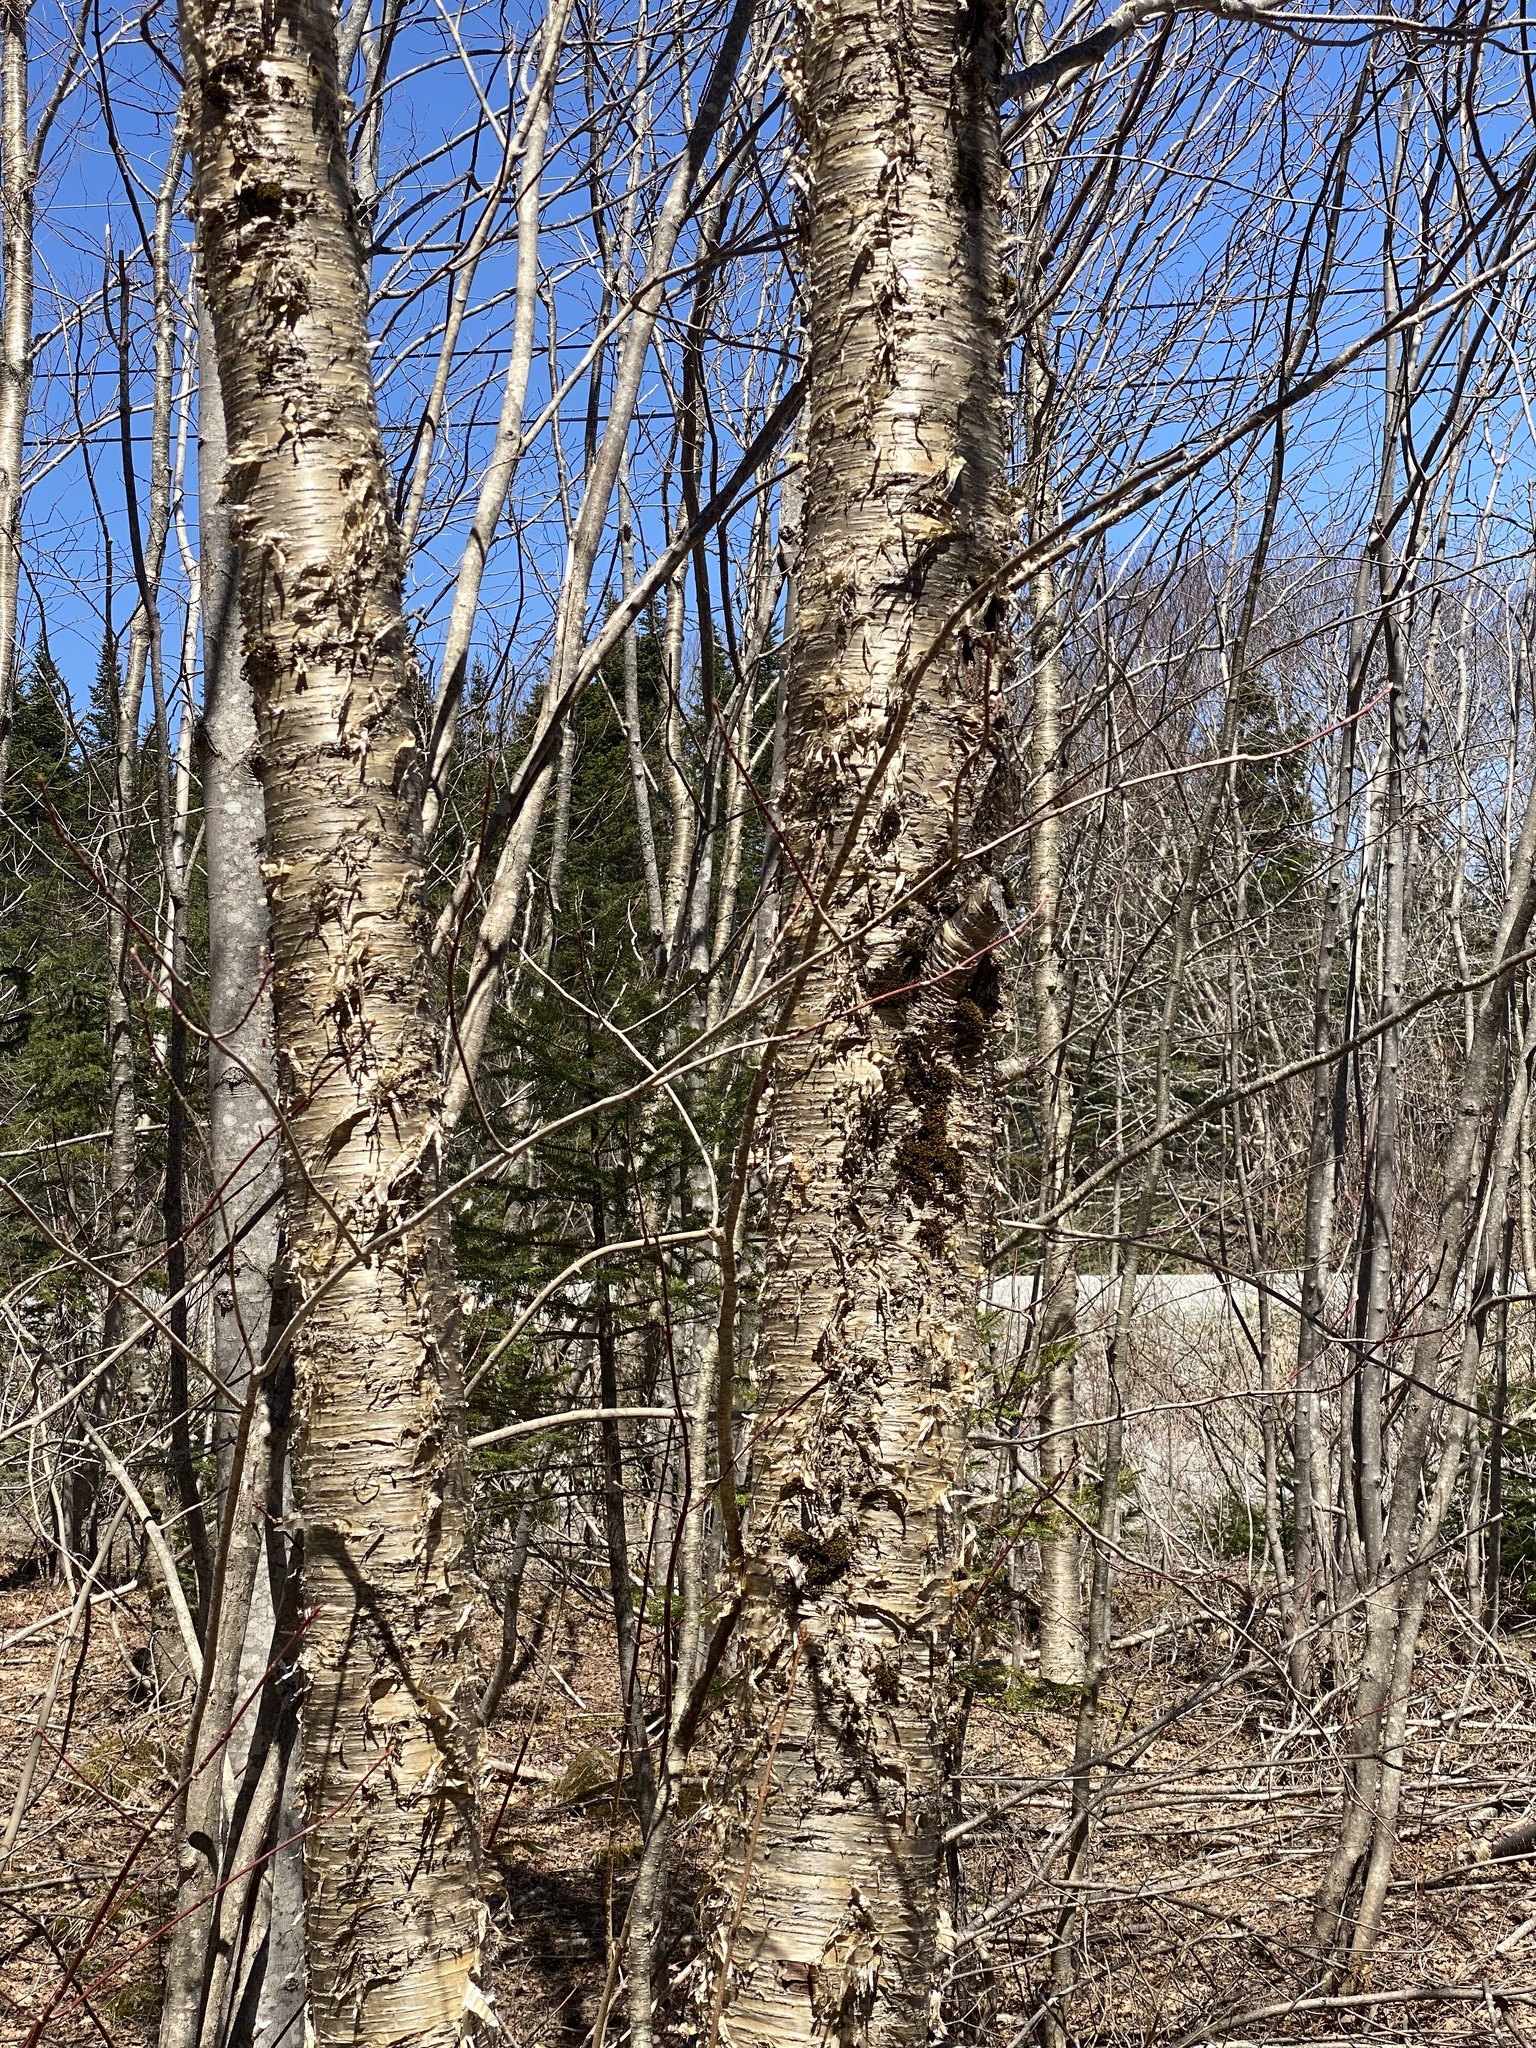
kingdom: Plantae
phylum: Tracheophyta
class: Magnoliopsida
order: Fagales
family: Betulaceae
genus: Betula
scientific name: Betula alleghaniensis
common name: Yellow birch
